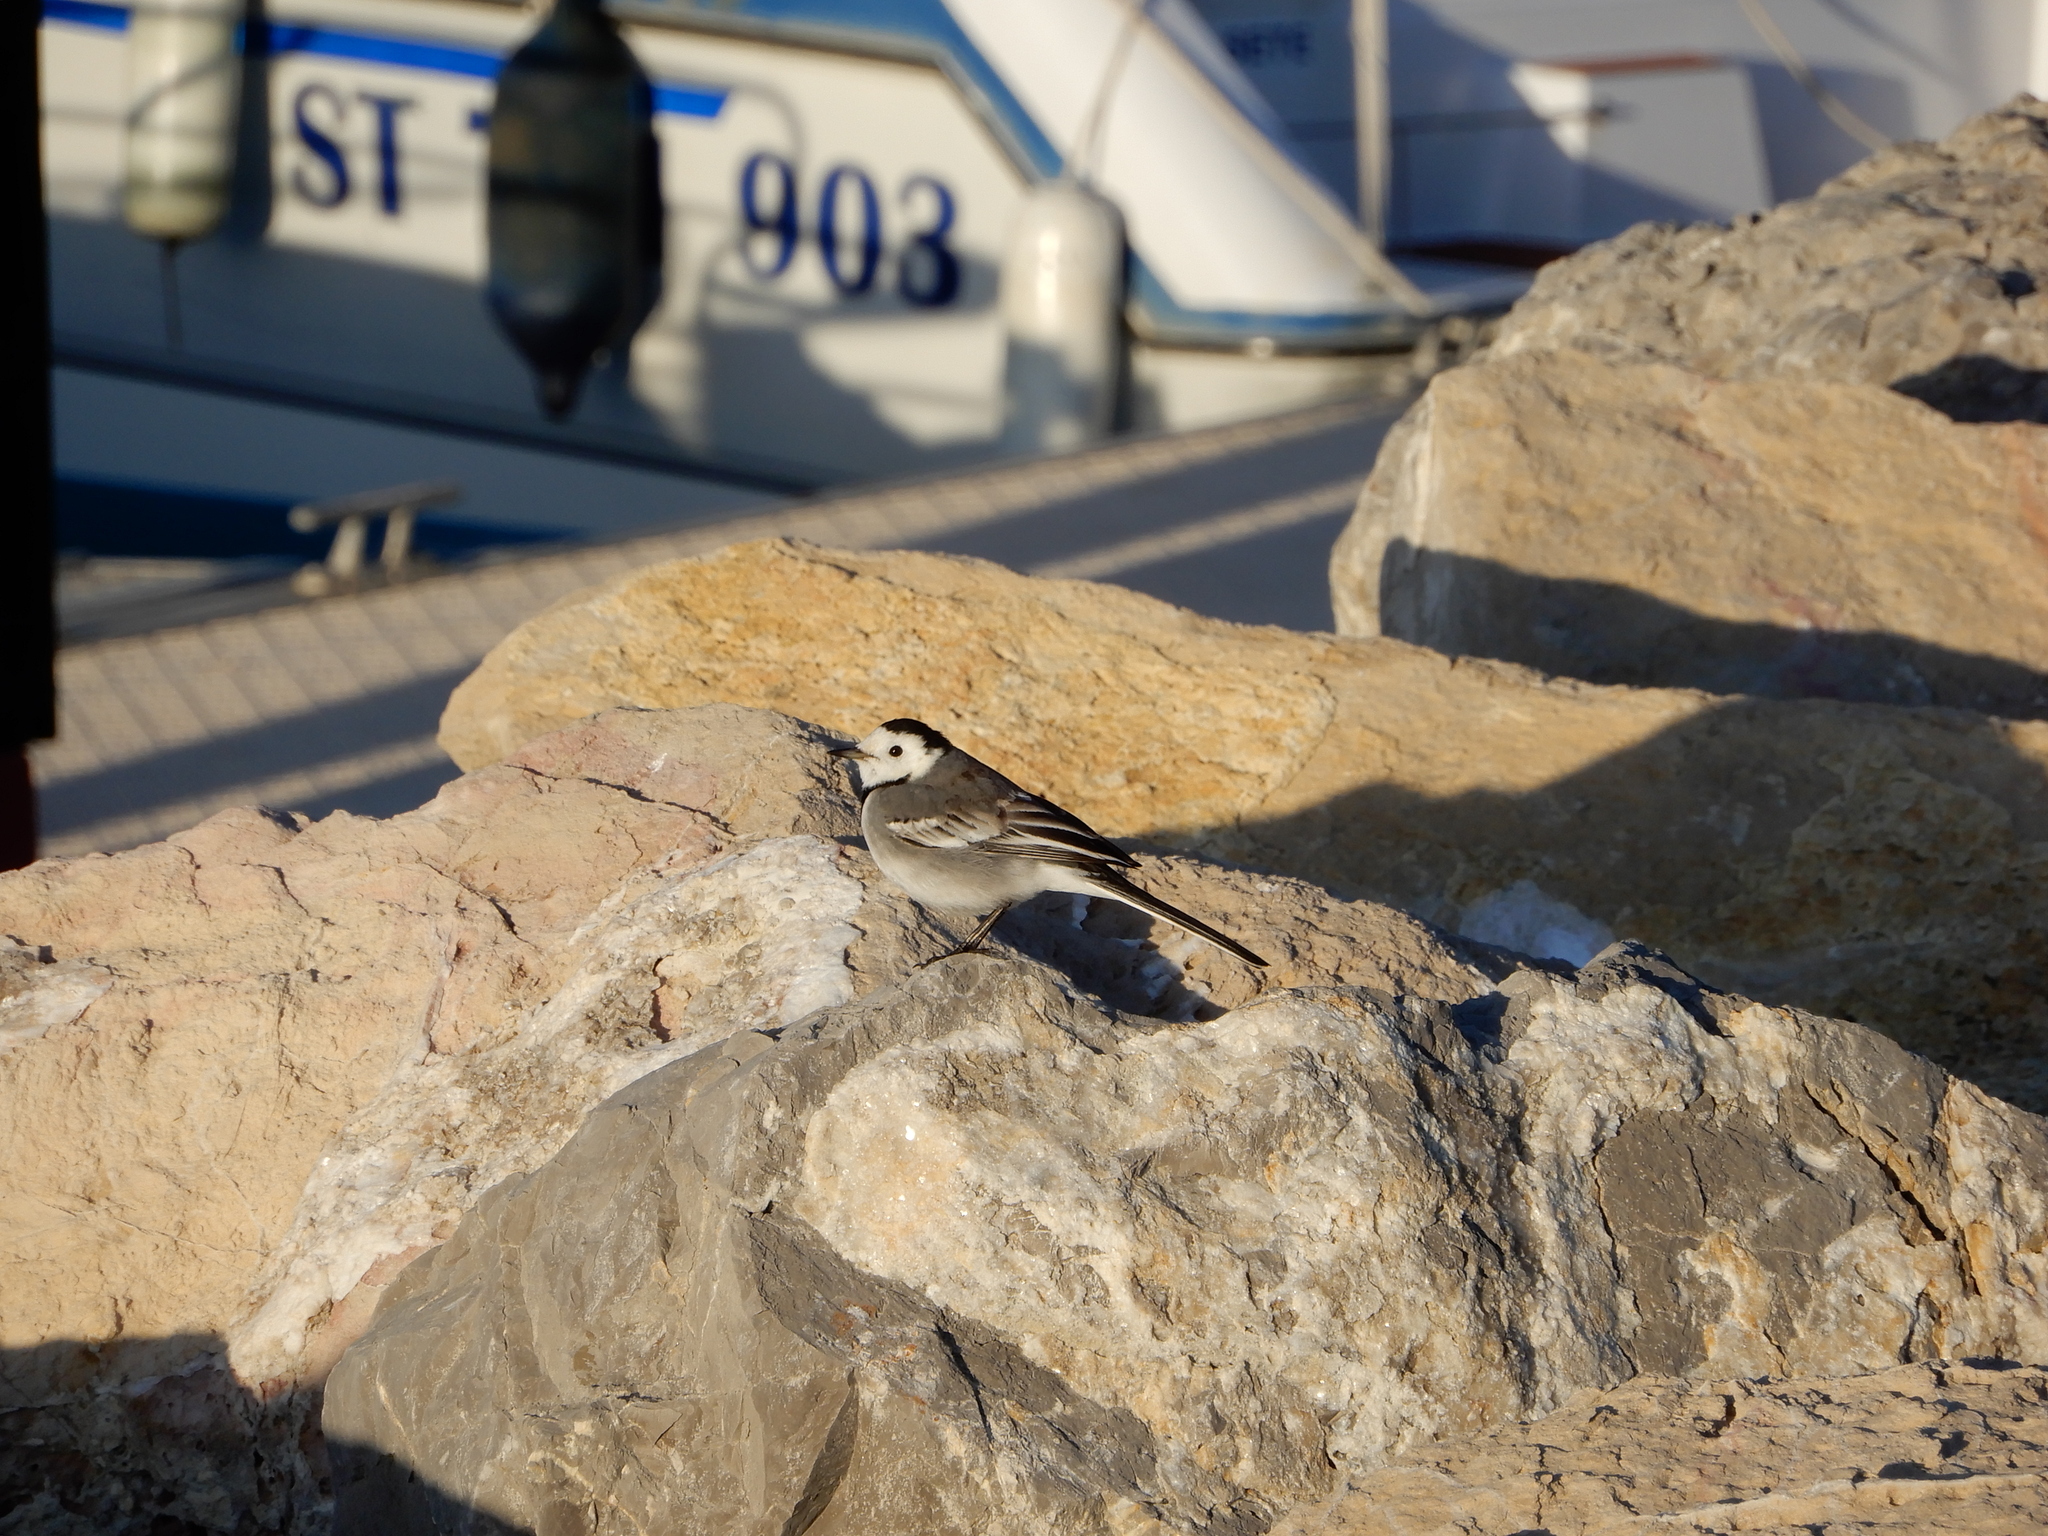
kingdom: Animalia
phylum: Chordata
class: Aves
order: Passeriformes
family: Motacillidae
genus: Motacilla
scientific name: Motacilla alba
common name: White wagtail
